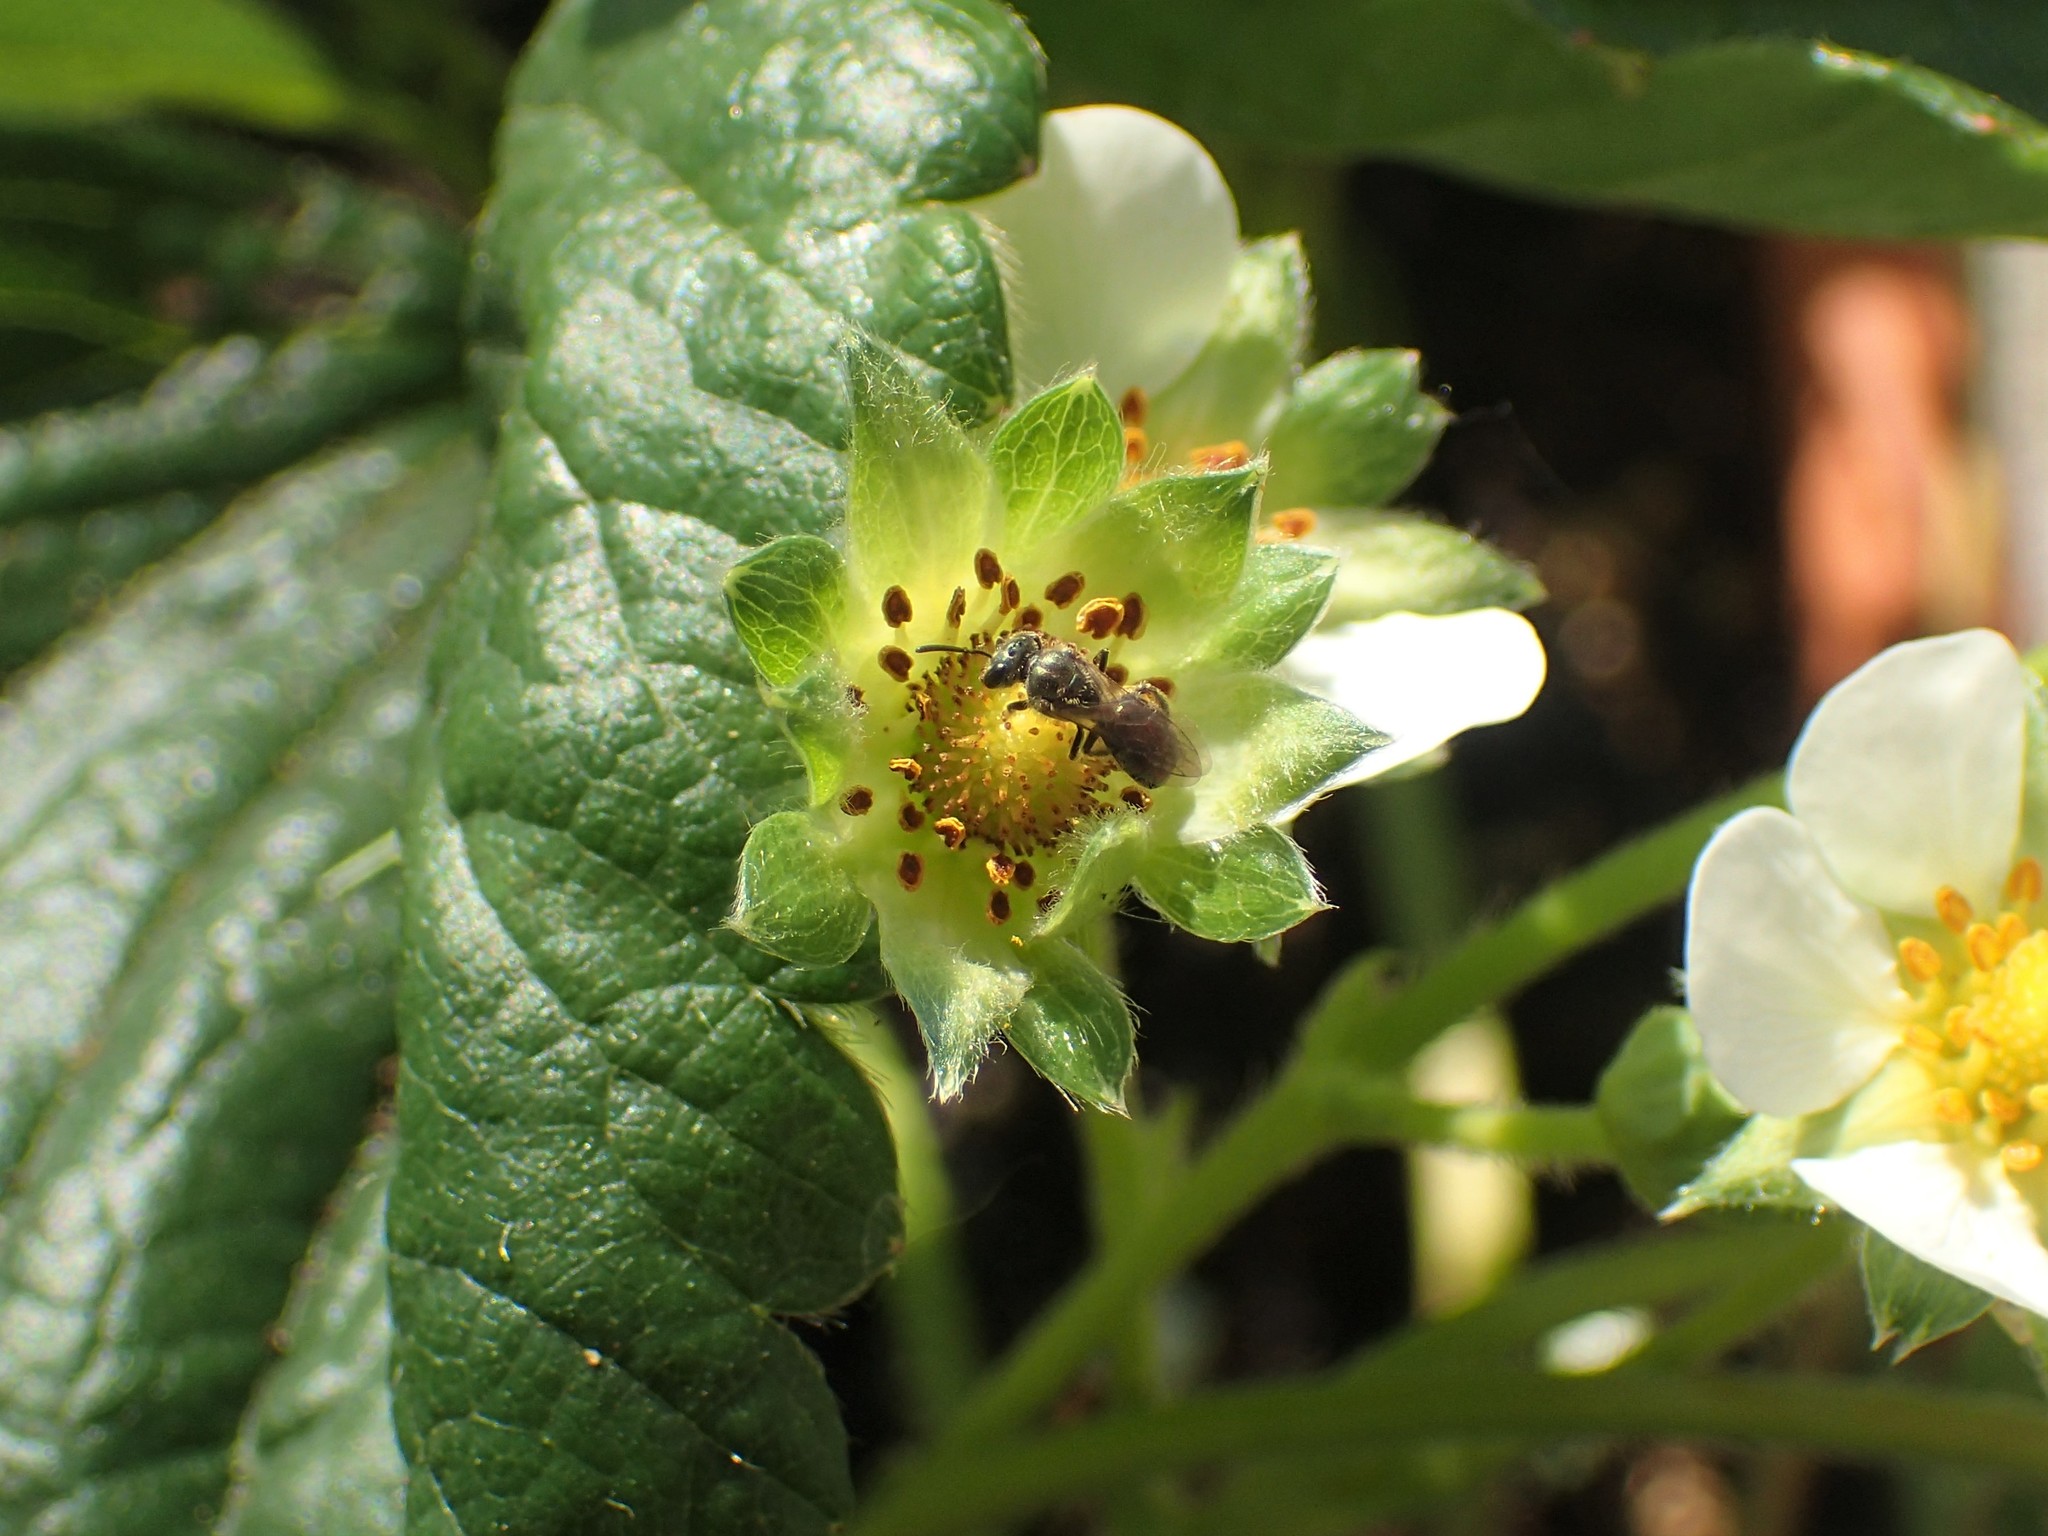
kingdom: Animalia
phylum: Arthropoda
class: Insecta
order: Hymenoptera
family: Halictidae
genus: Dialictus
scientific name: Dialictus
